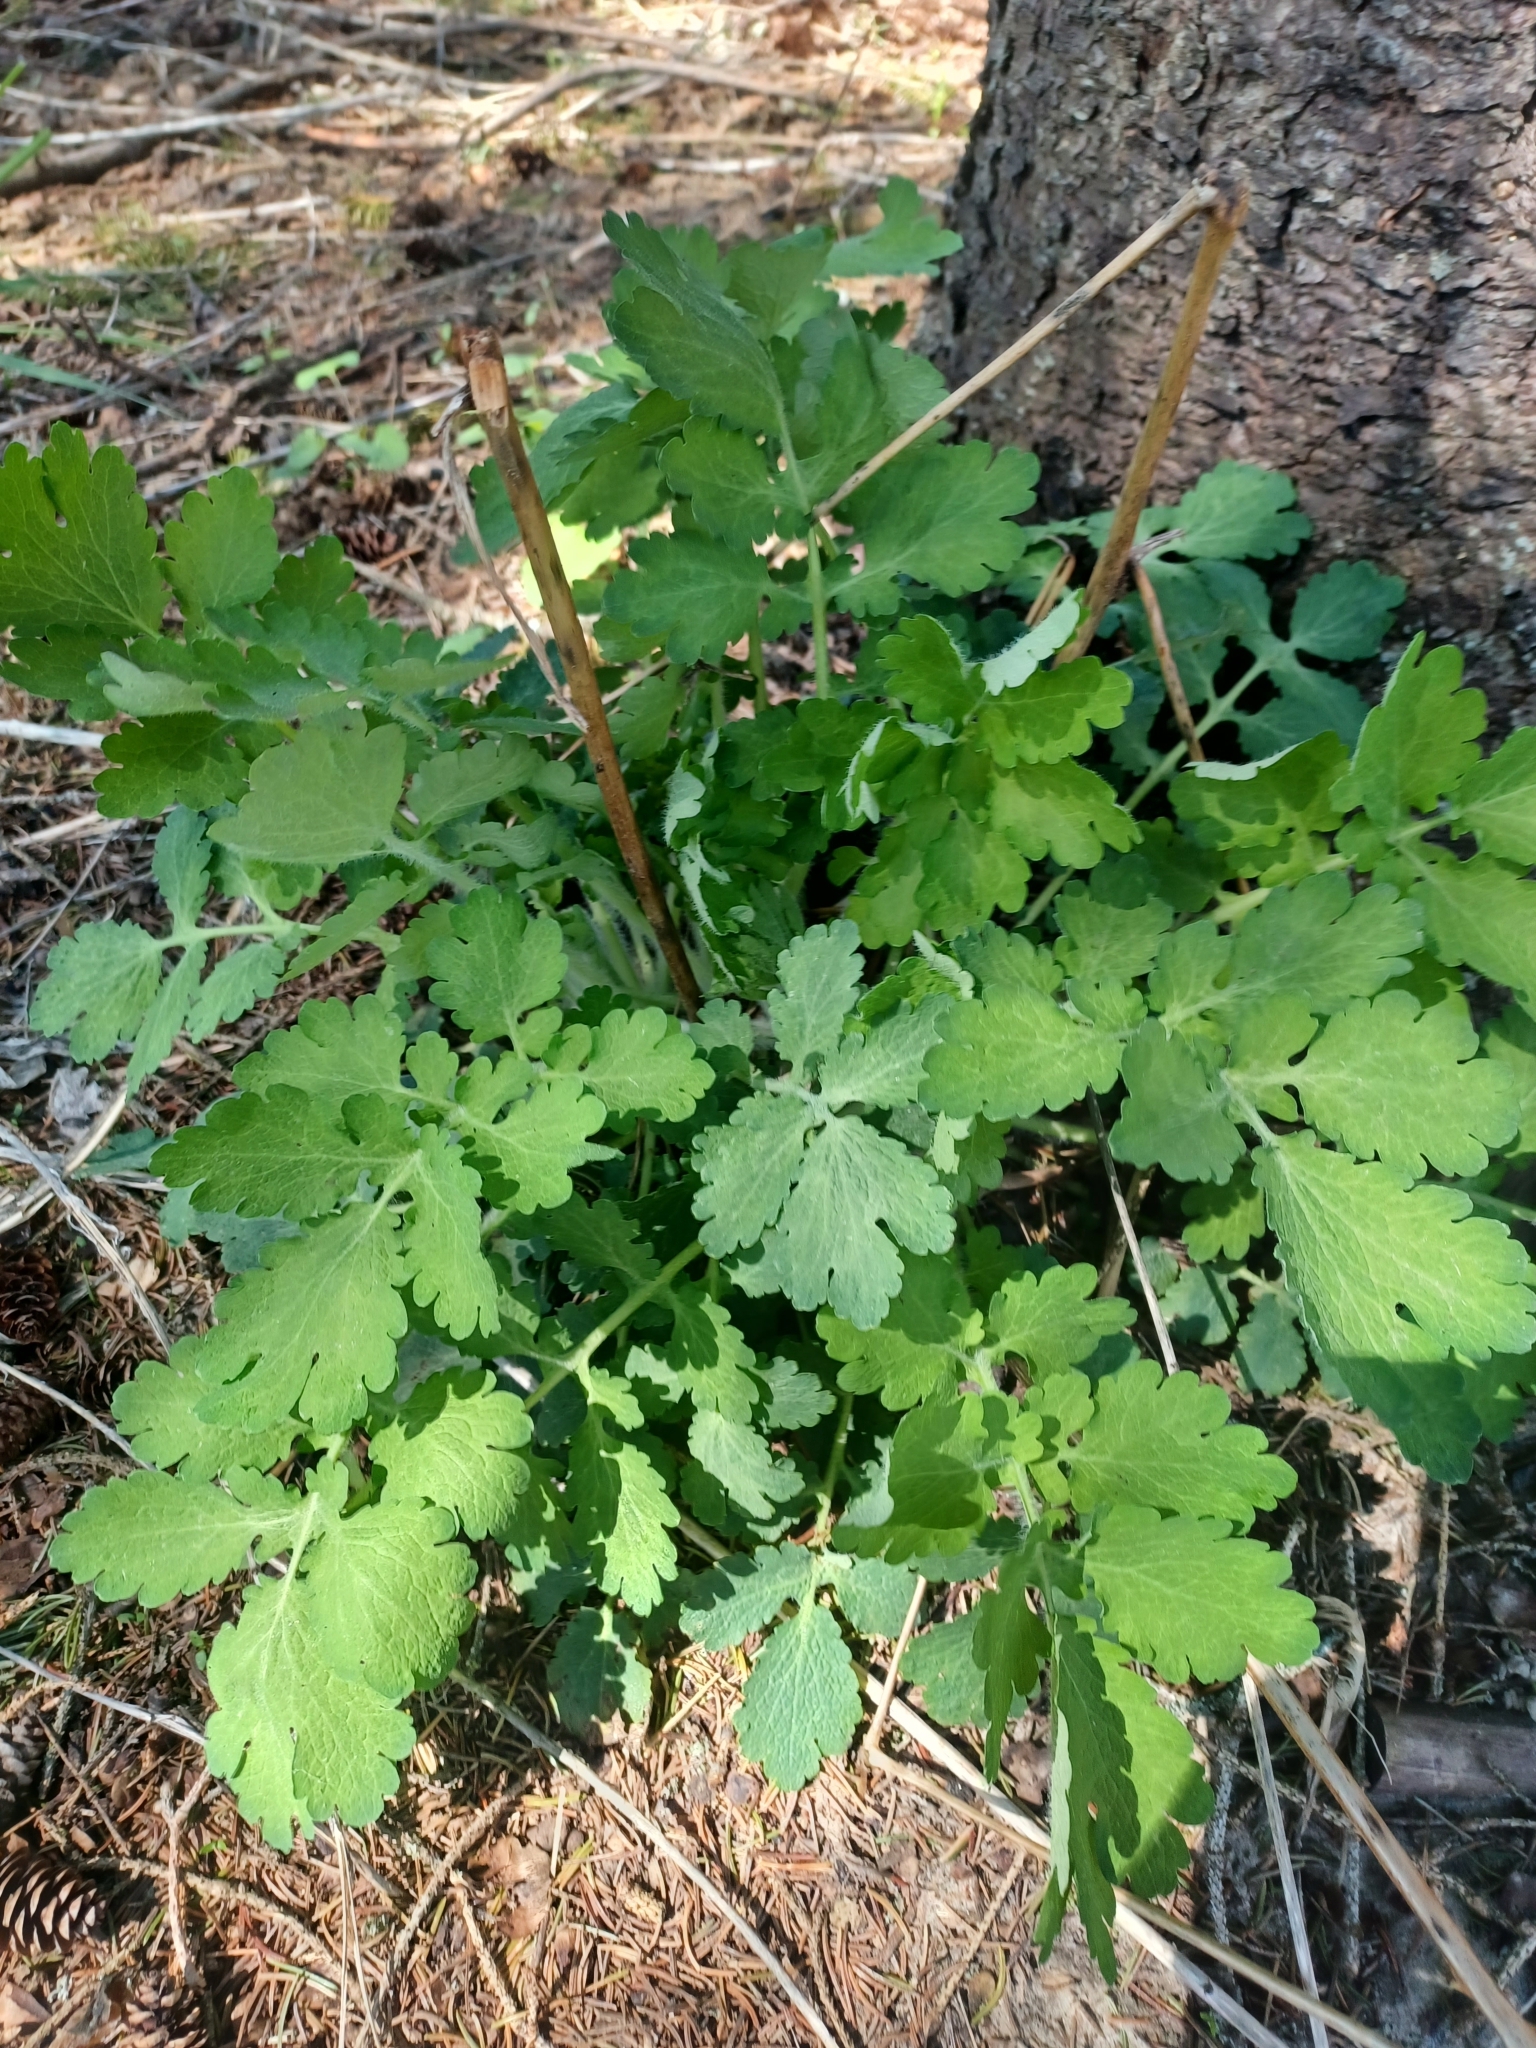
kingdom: Plantae
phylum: Tracheophyta
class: Magnoliopsida
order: Ranunculales
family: Papaveraceae
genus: Chelidonium
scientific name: Chelidonium majus
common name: Greater celandine
